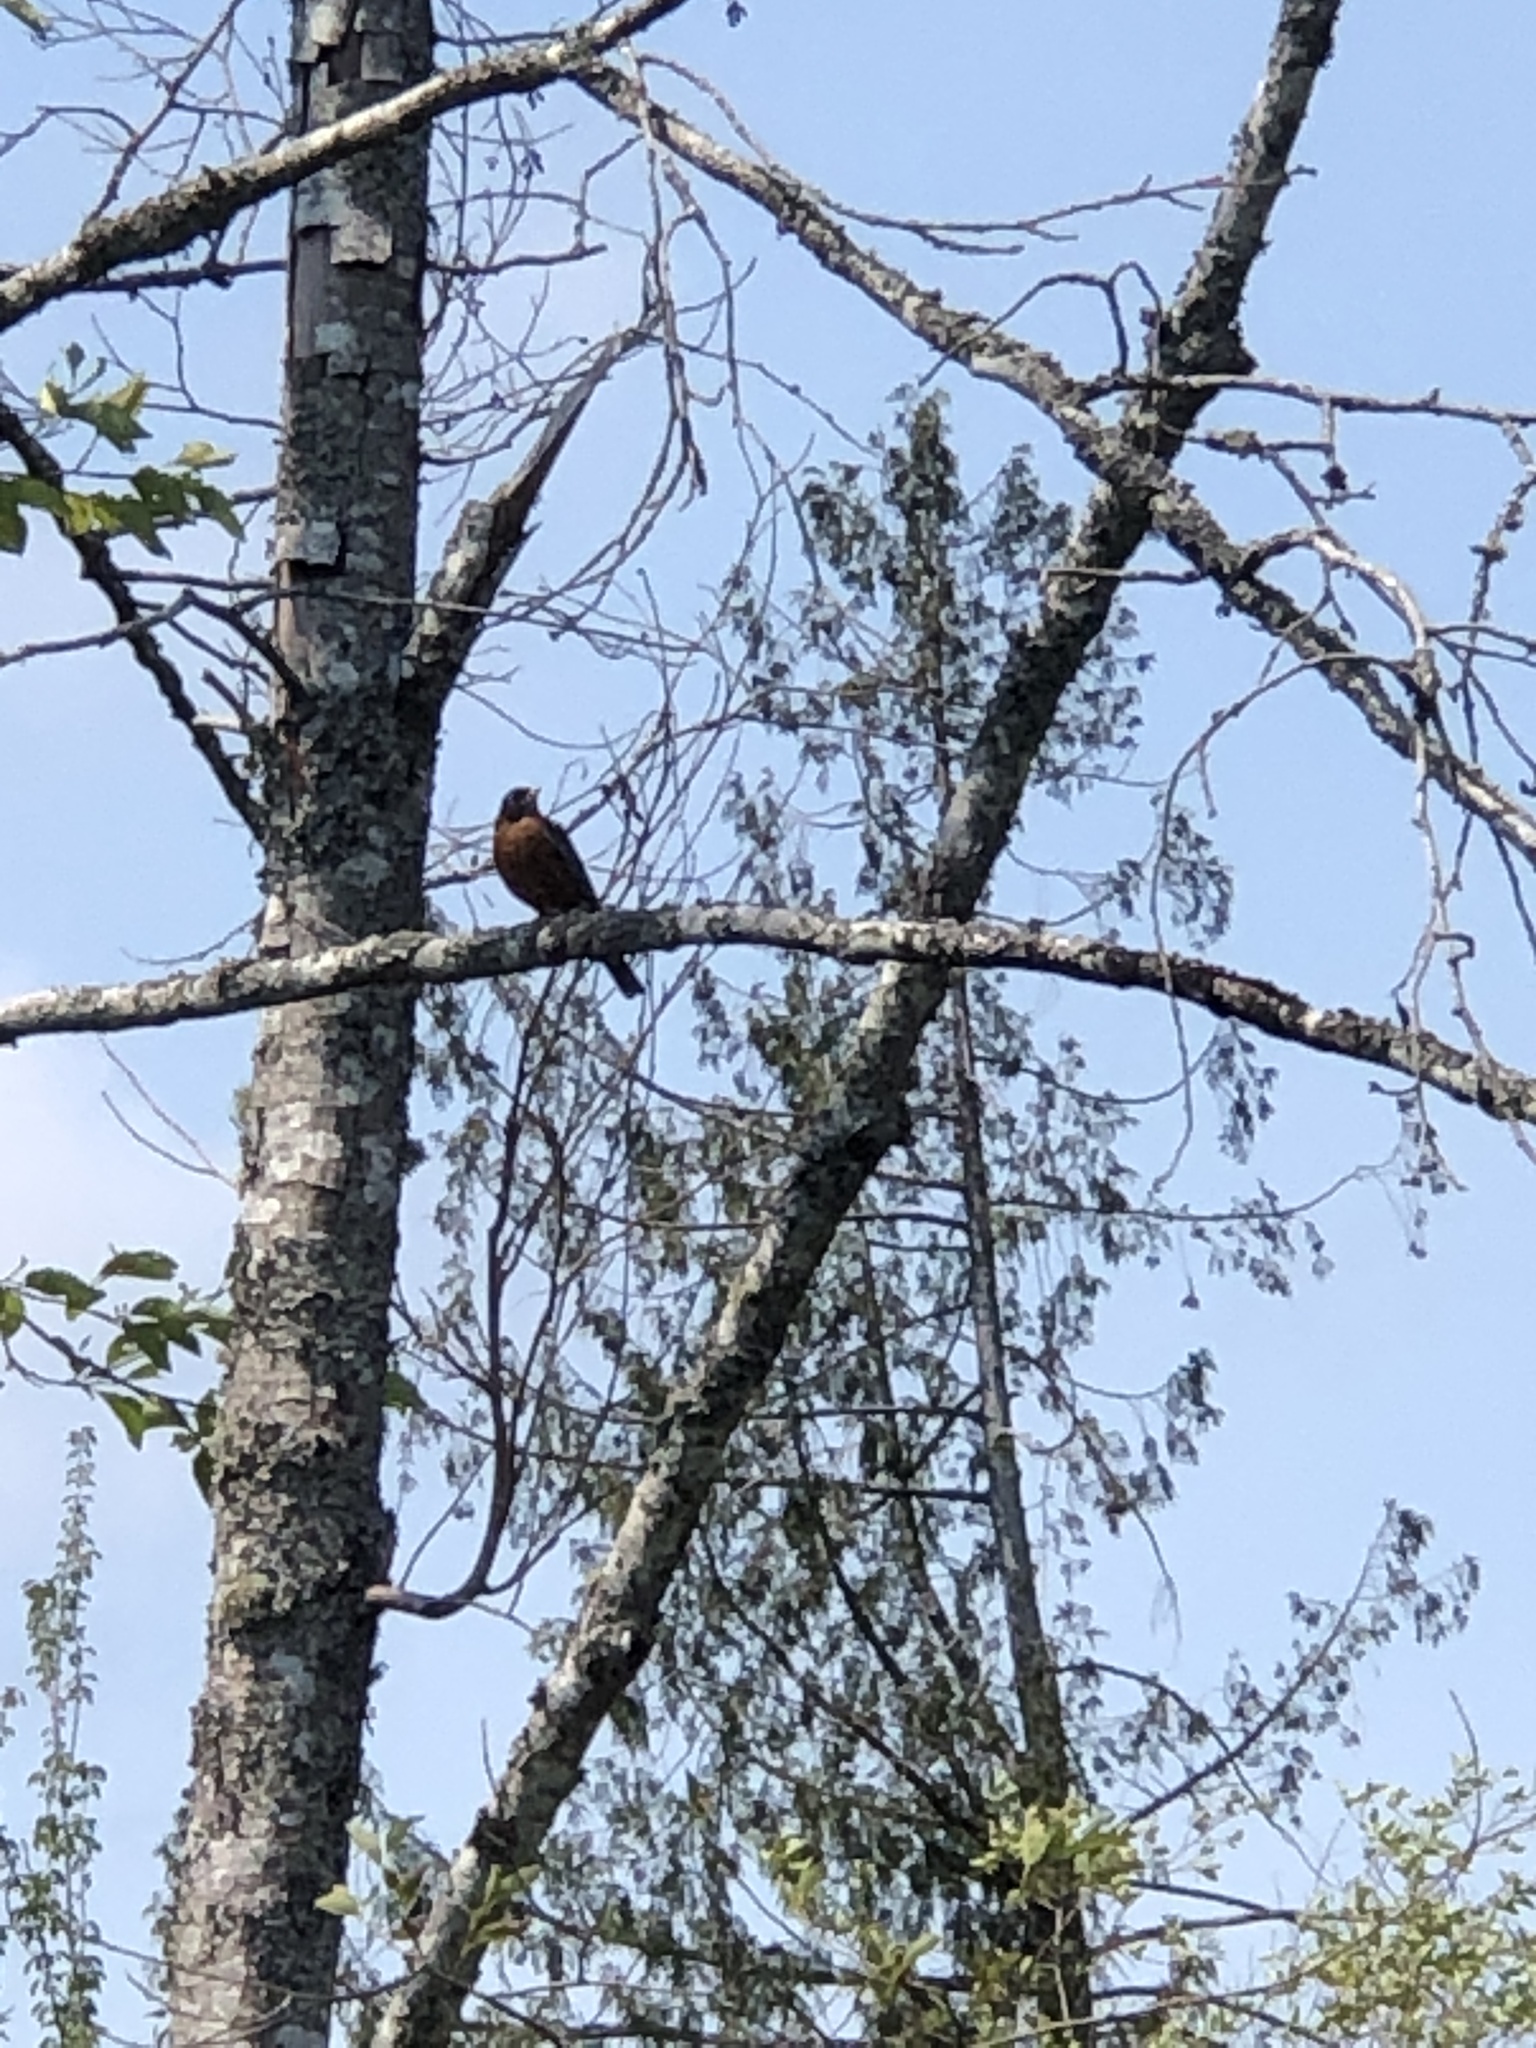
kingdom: Animalia
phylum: Chordata
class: Aves
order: Passeriformes
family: Turdidae
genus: Turdus
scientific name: Turdus migratorius
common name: American robin
